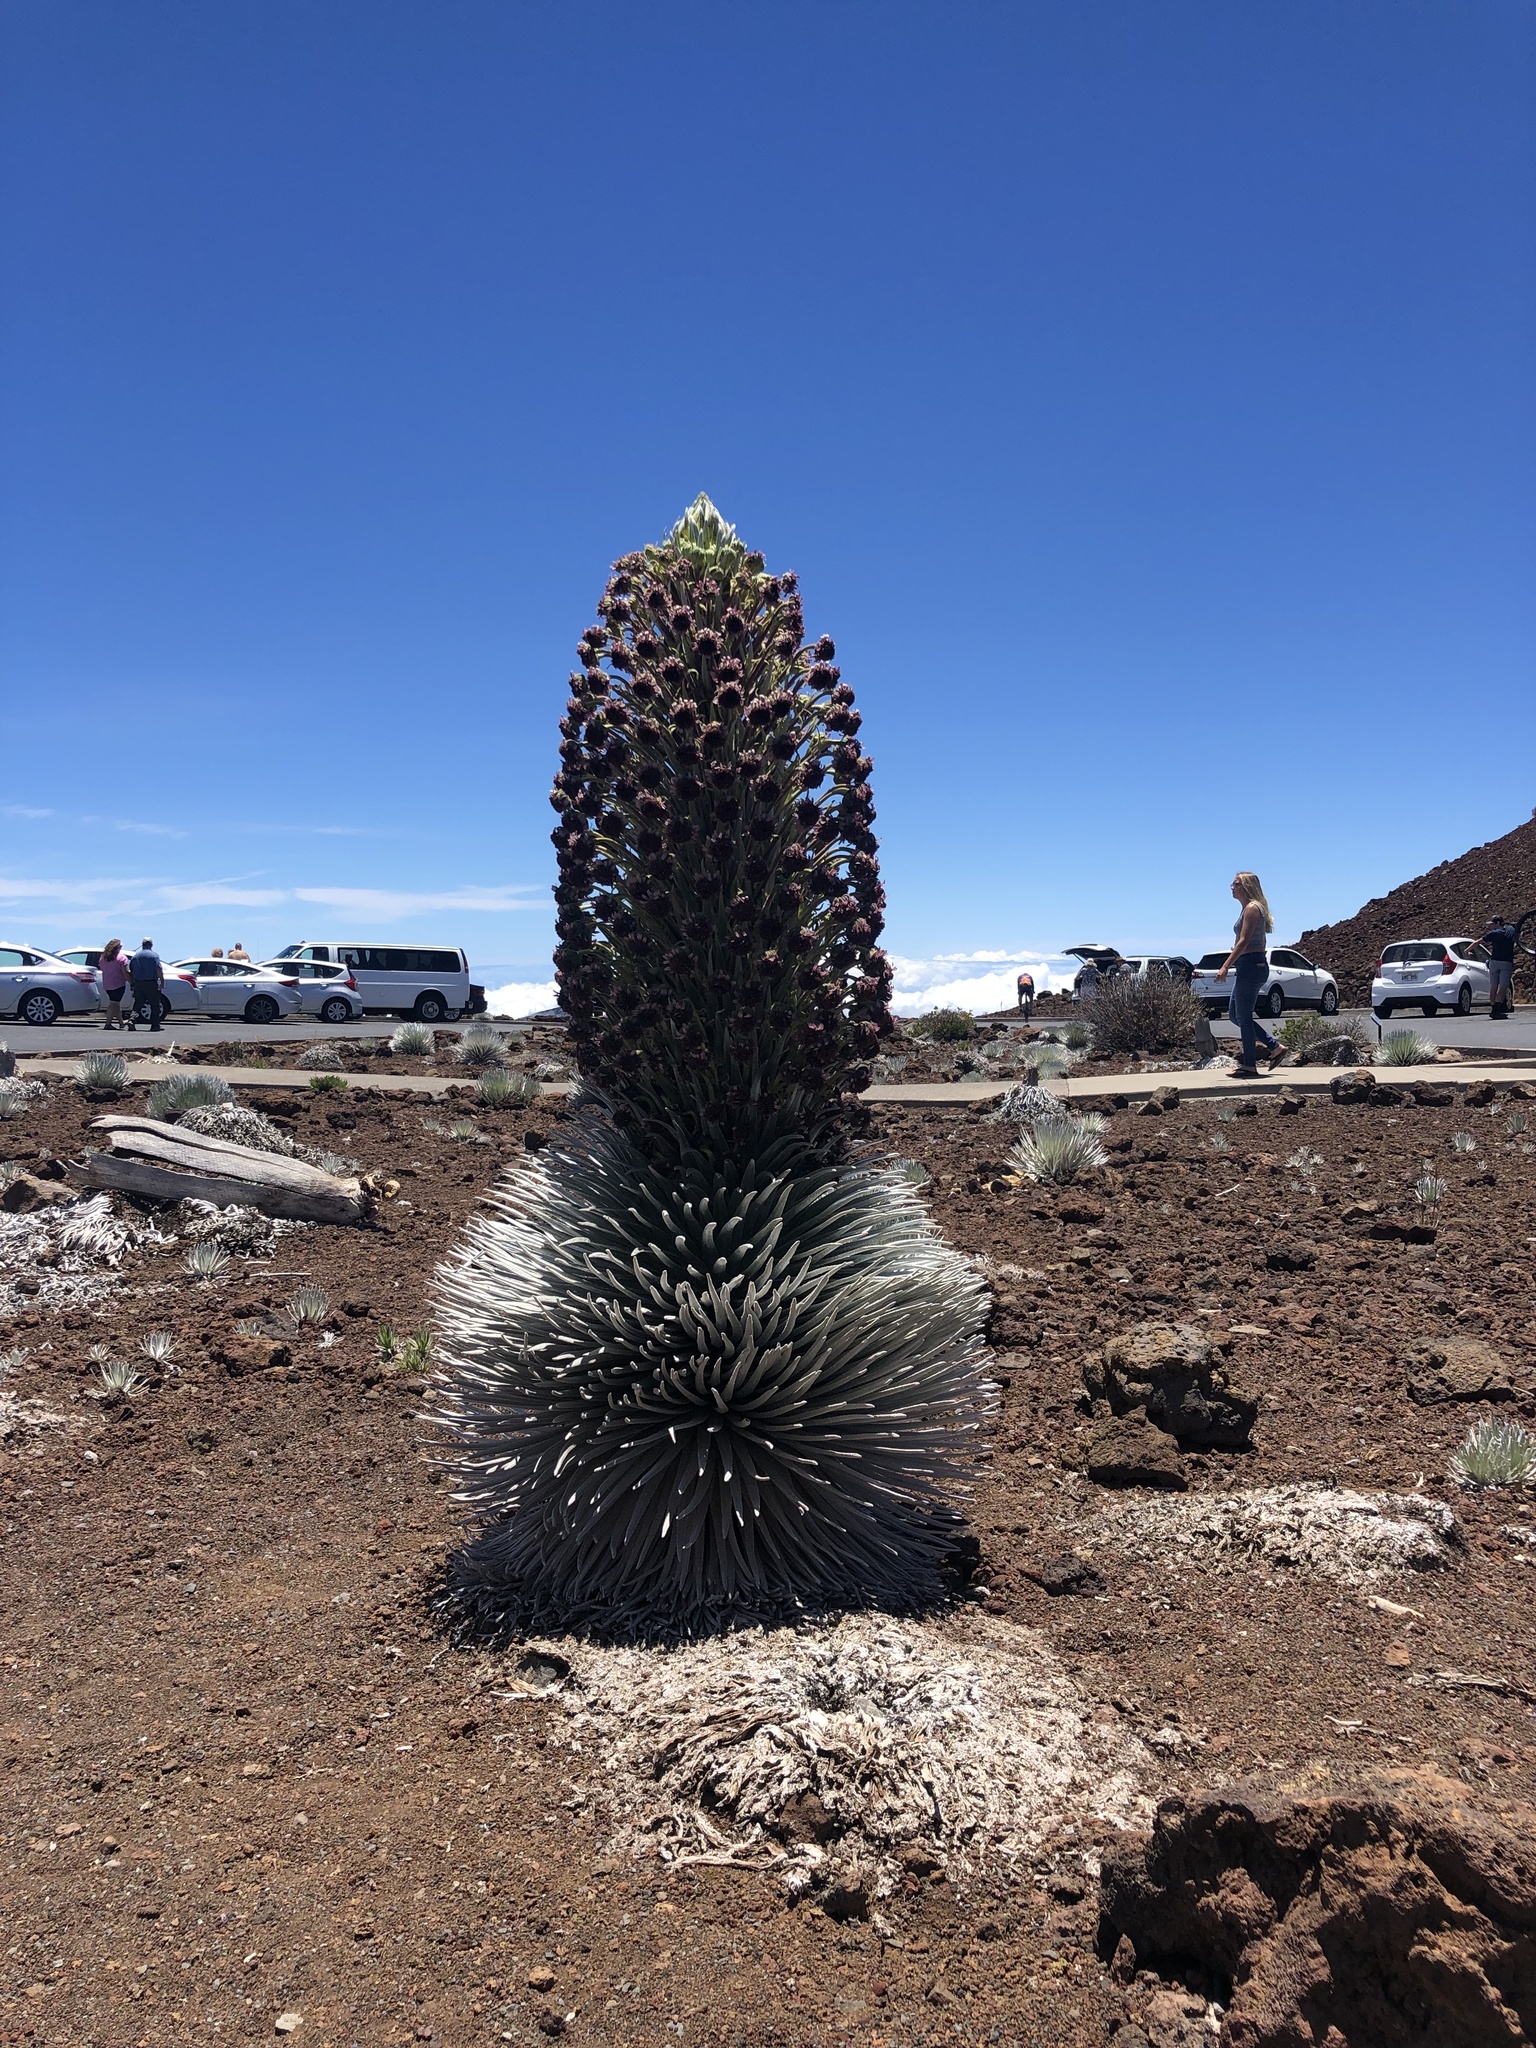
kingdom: Plantae
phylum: Tracheophyta
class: Magnoliopsida
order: Asterales
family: Asteraceae
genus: Argyroxiphium
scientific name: Argyroxiphium sandwicense
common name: Silversword
